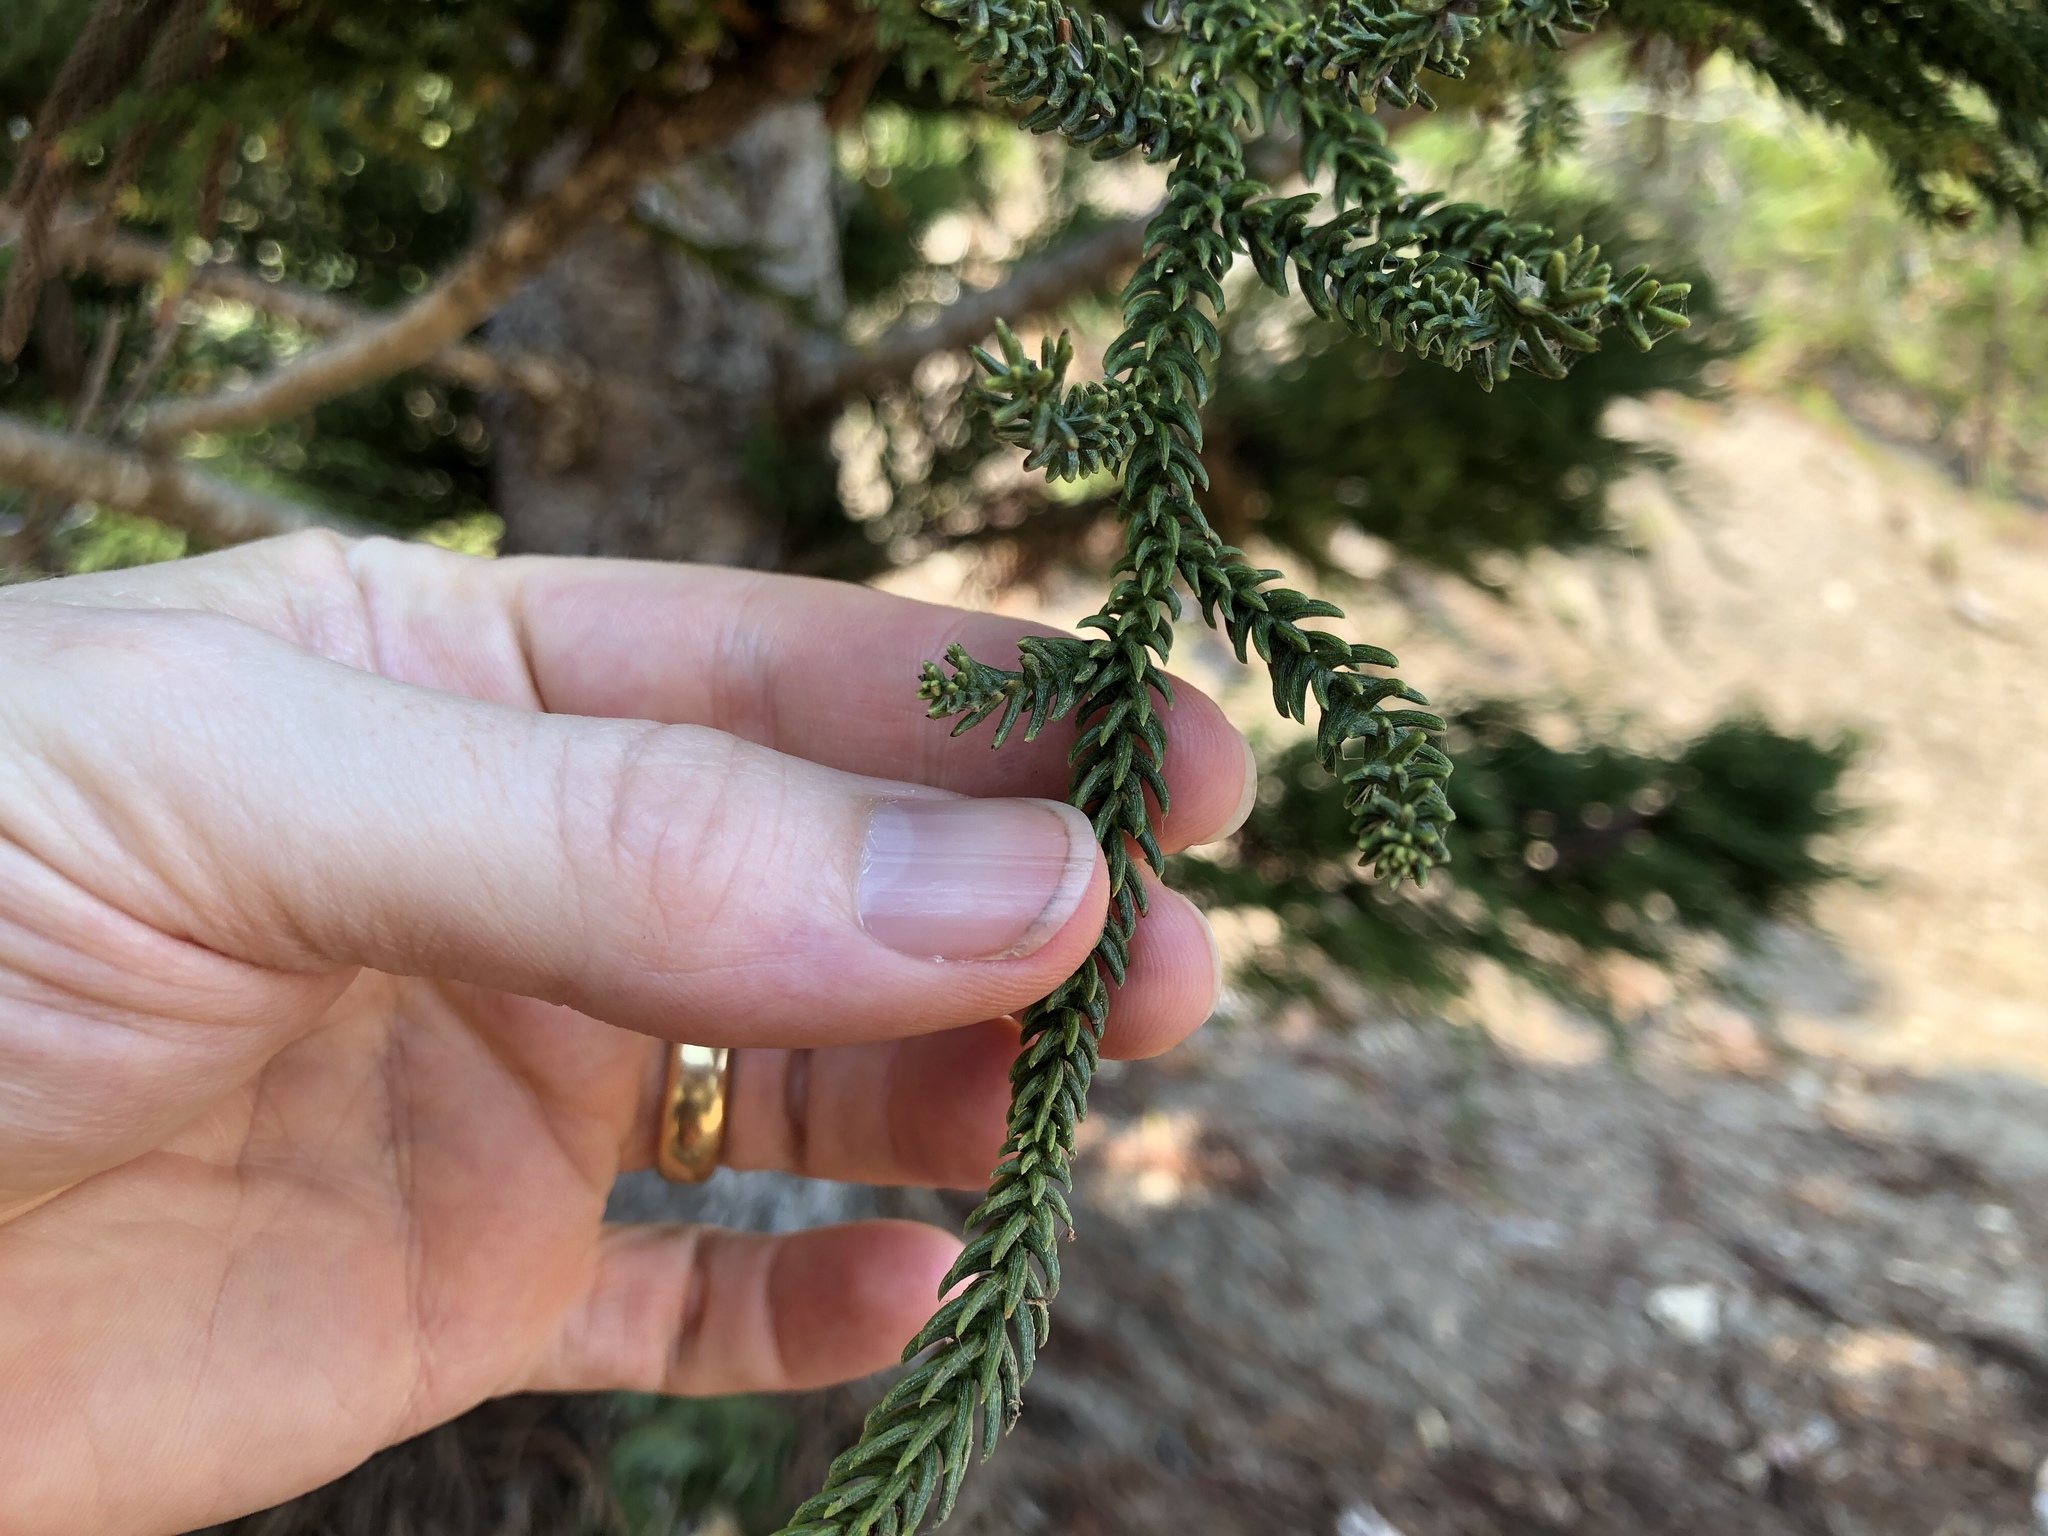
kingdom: Plantae
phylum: Tracheophyta
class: Pinopsida
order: Pinales
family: Araucariaceae
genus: Araucaria
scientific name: Araucaria cunninghamii
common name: Colonial pine
